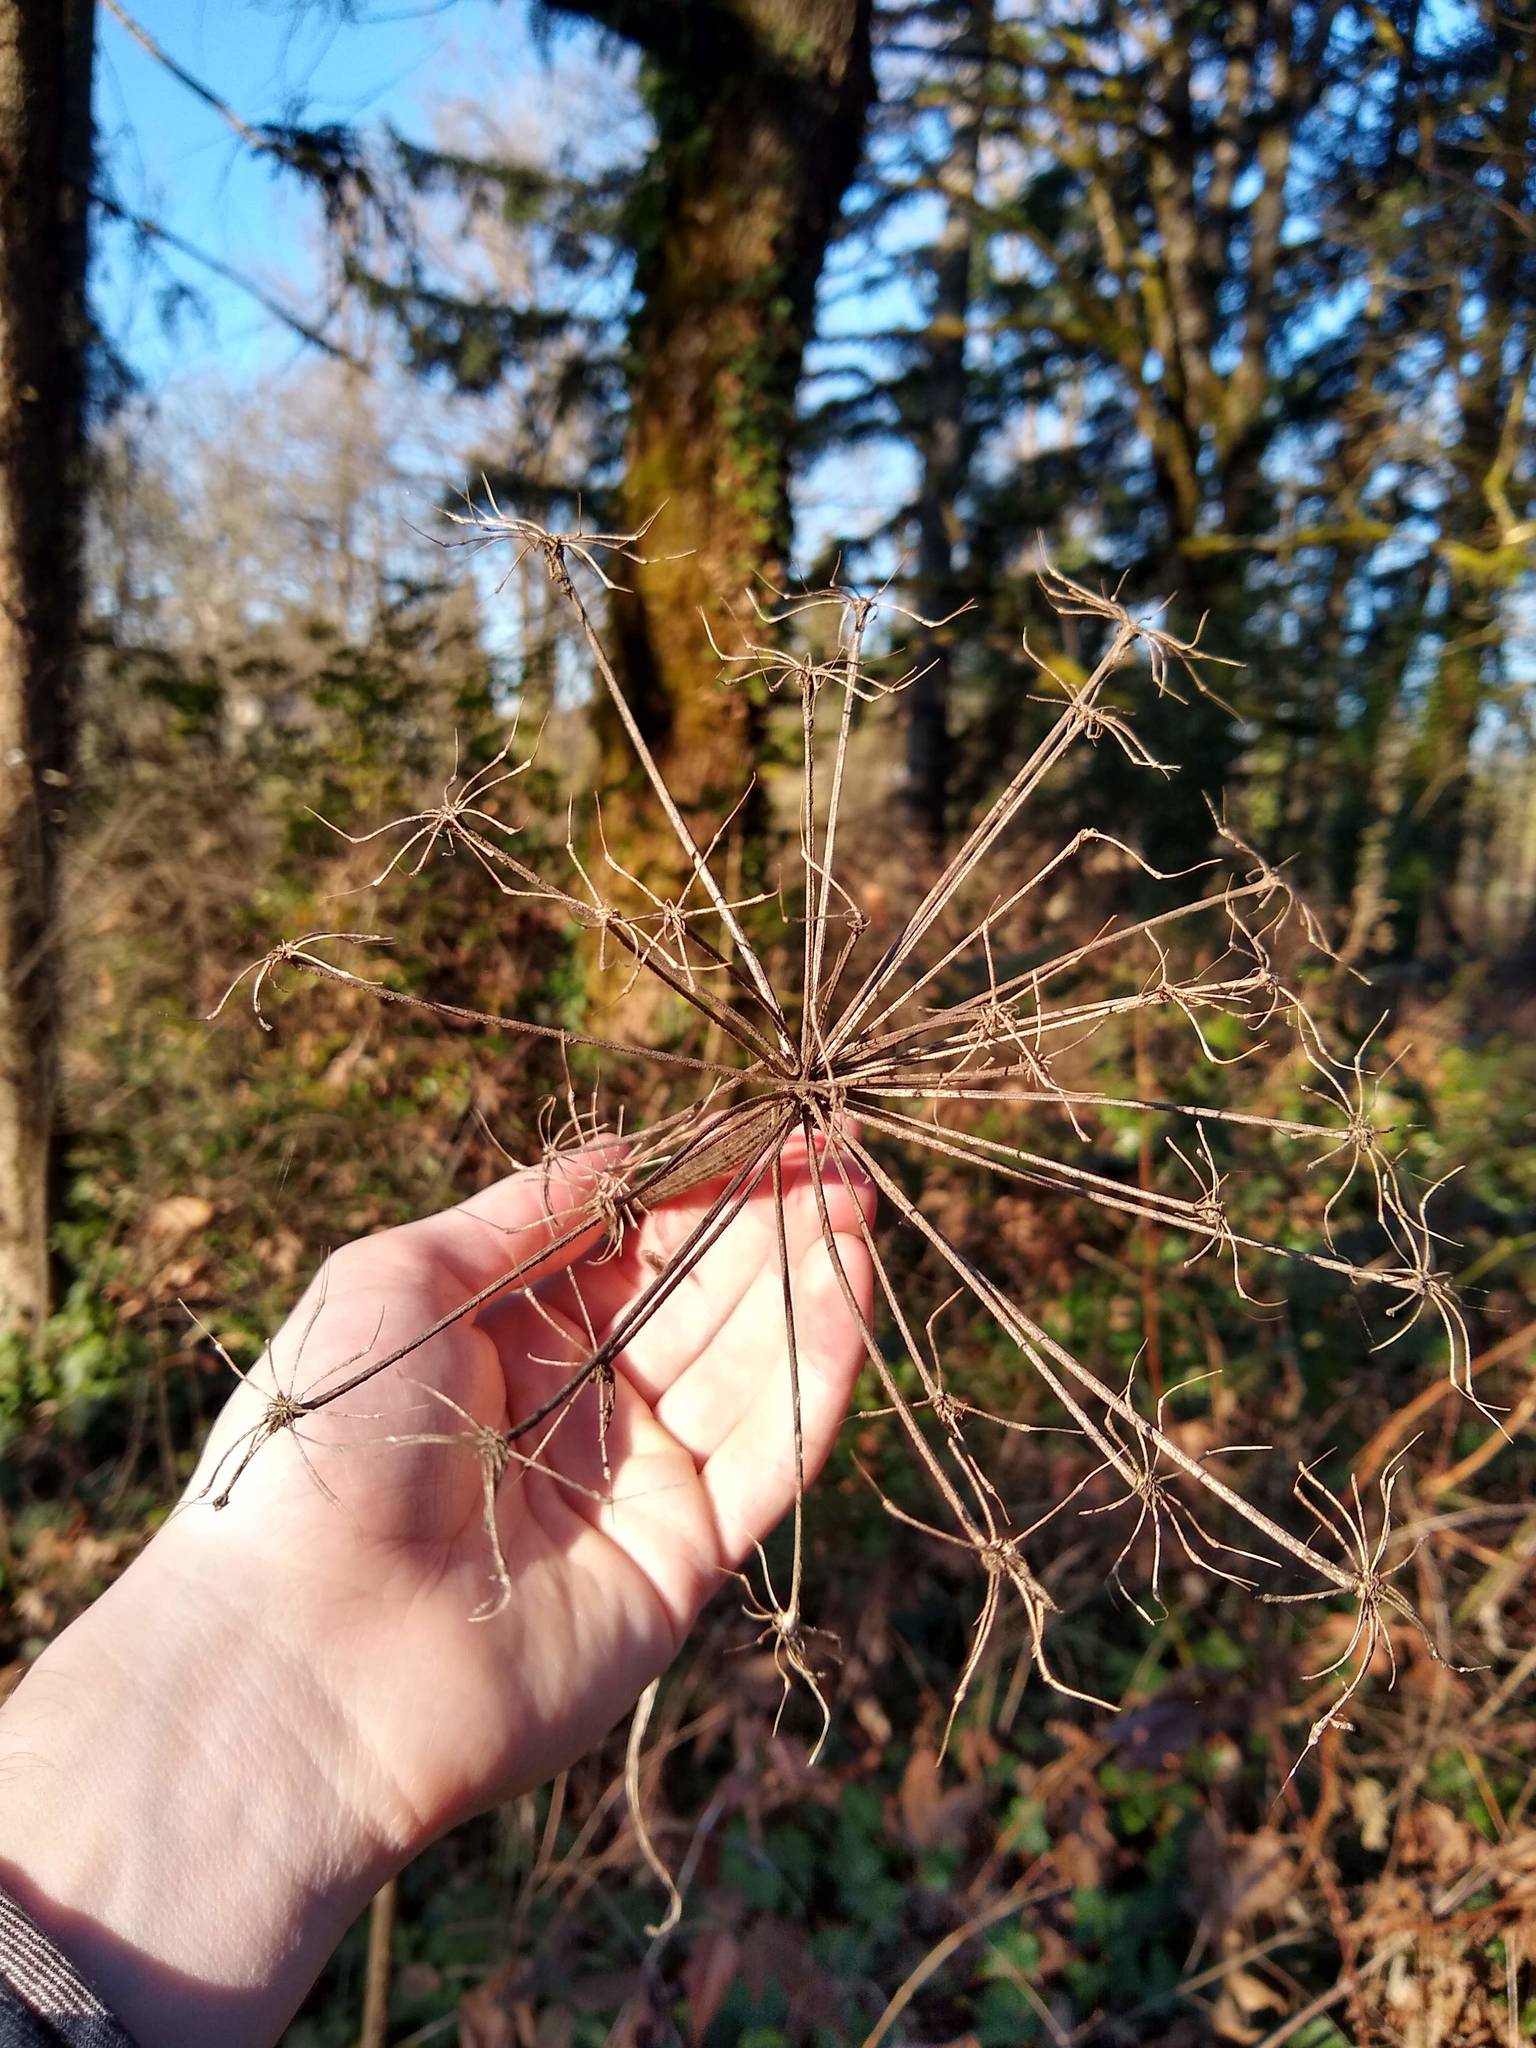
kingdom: Plantae
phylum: Tracheophyta
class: Magnoliopsida
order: Apiales
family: Apiaceae
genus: Heracleum
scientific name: Heracleum maximum
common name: American cow parsnip
